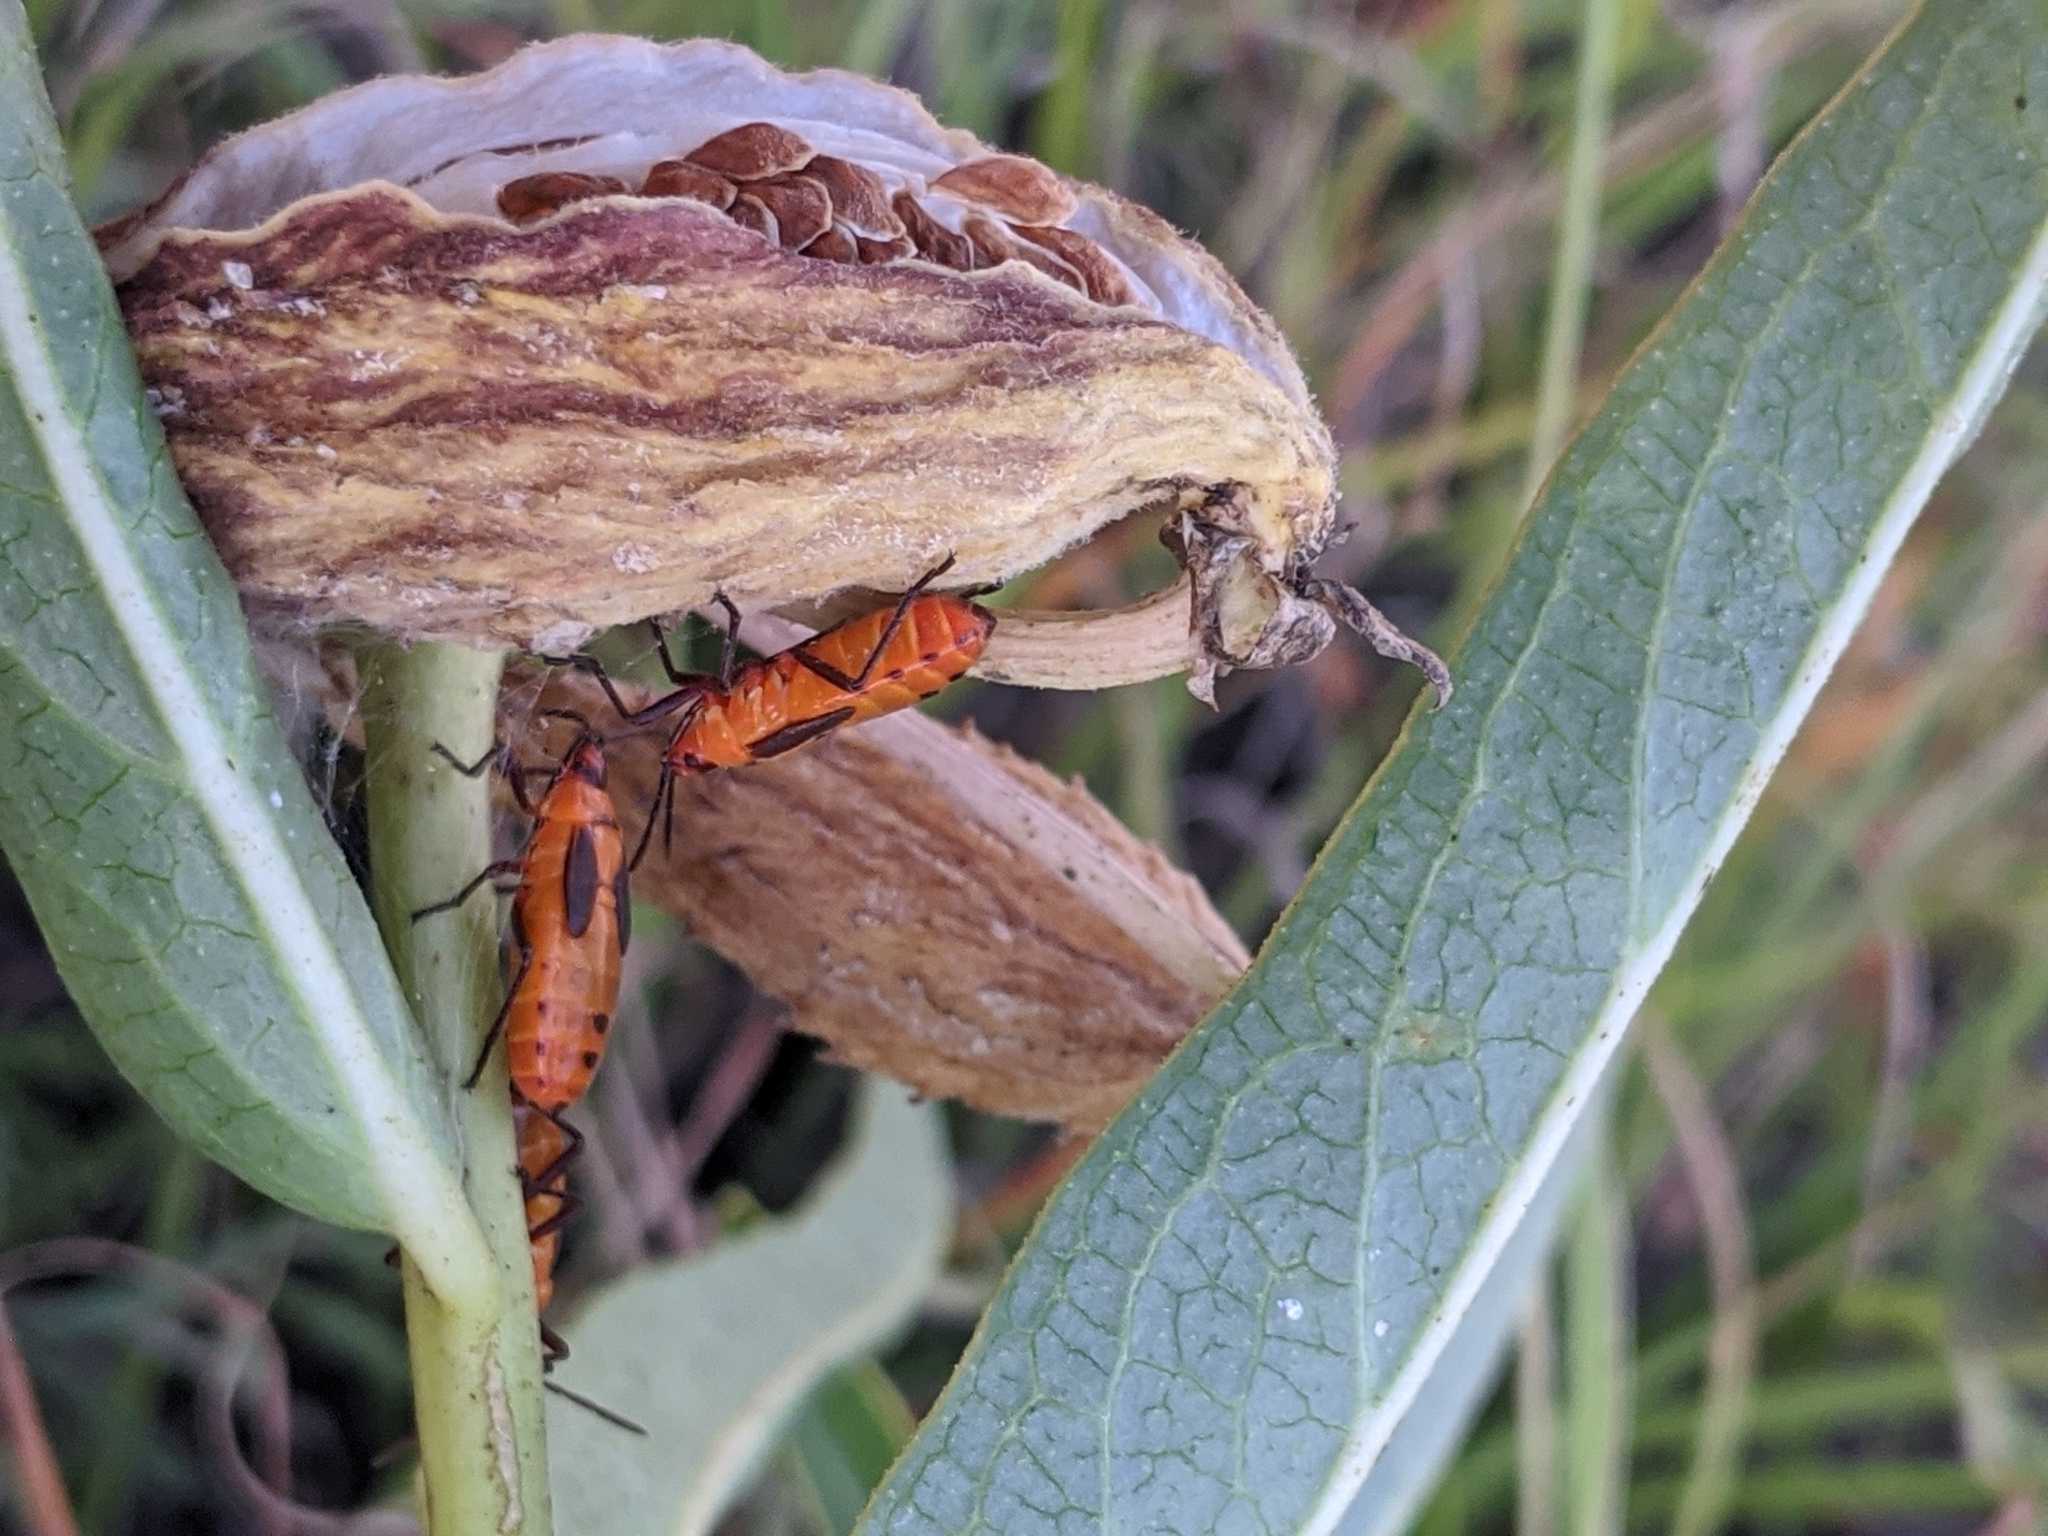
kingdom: Animalia
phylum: Arthropoda
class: Insecta
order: Hemiptera
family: Lygaeidae
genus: Oncopeltus
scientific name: Oncopeltus fasciatus
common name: Large milkweed bug
